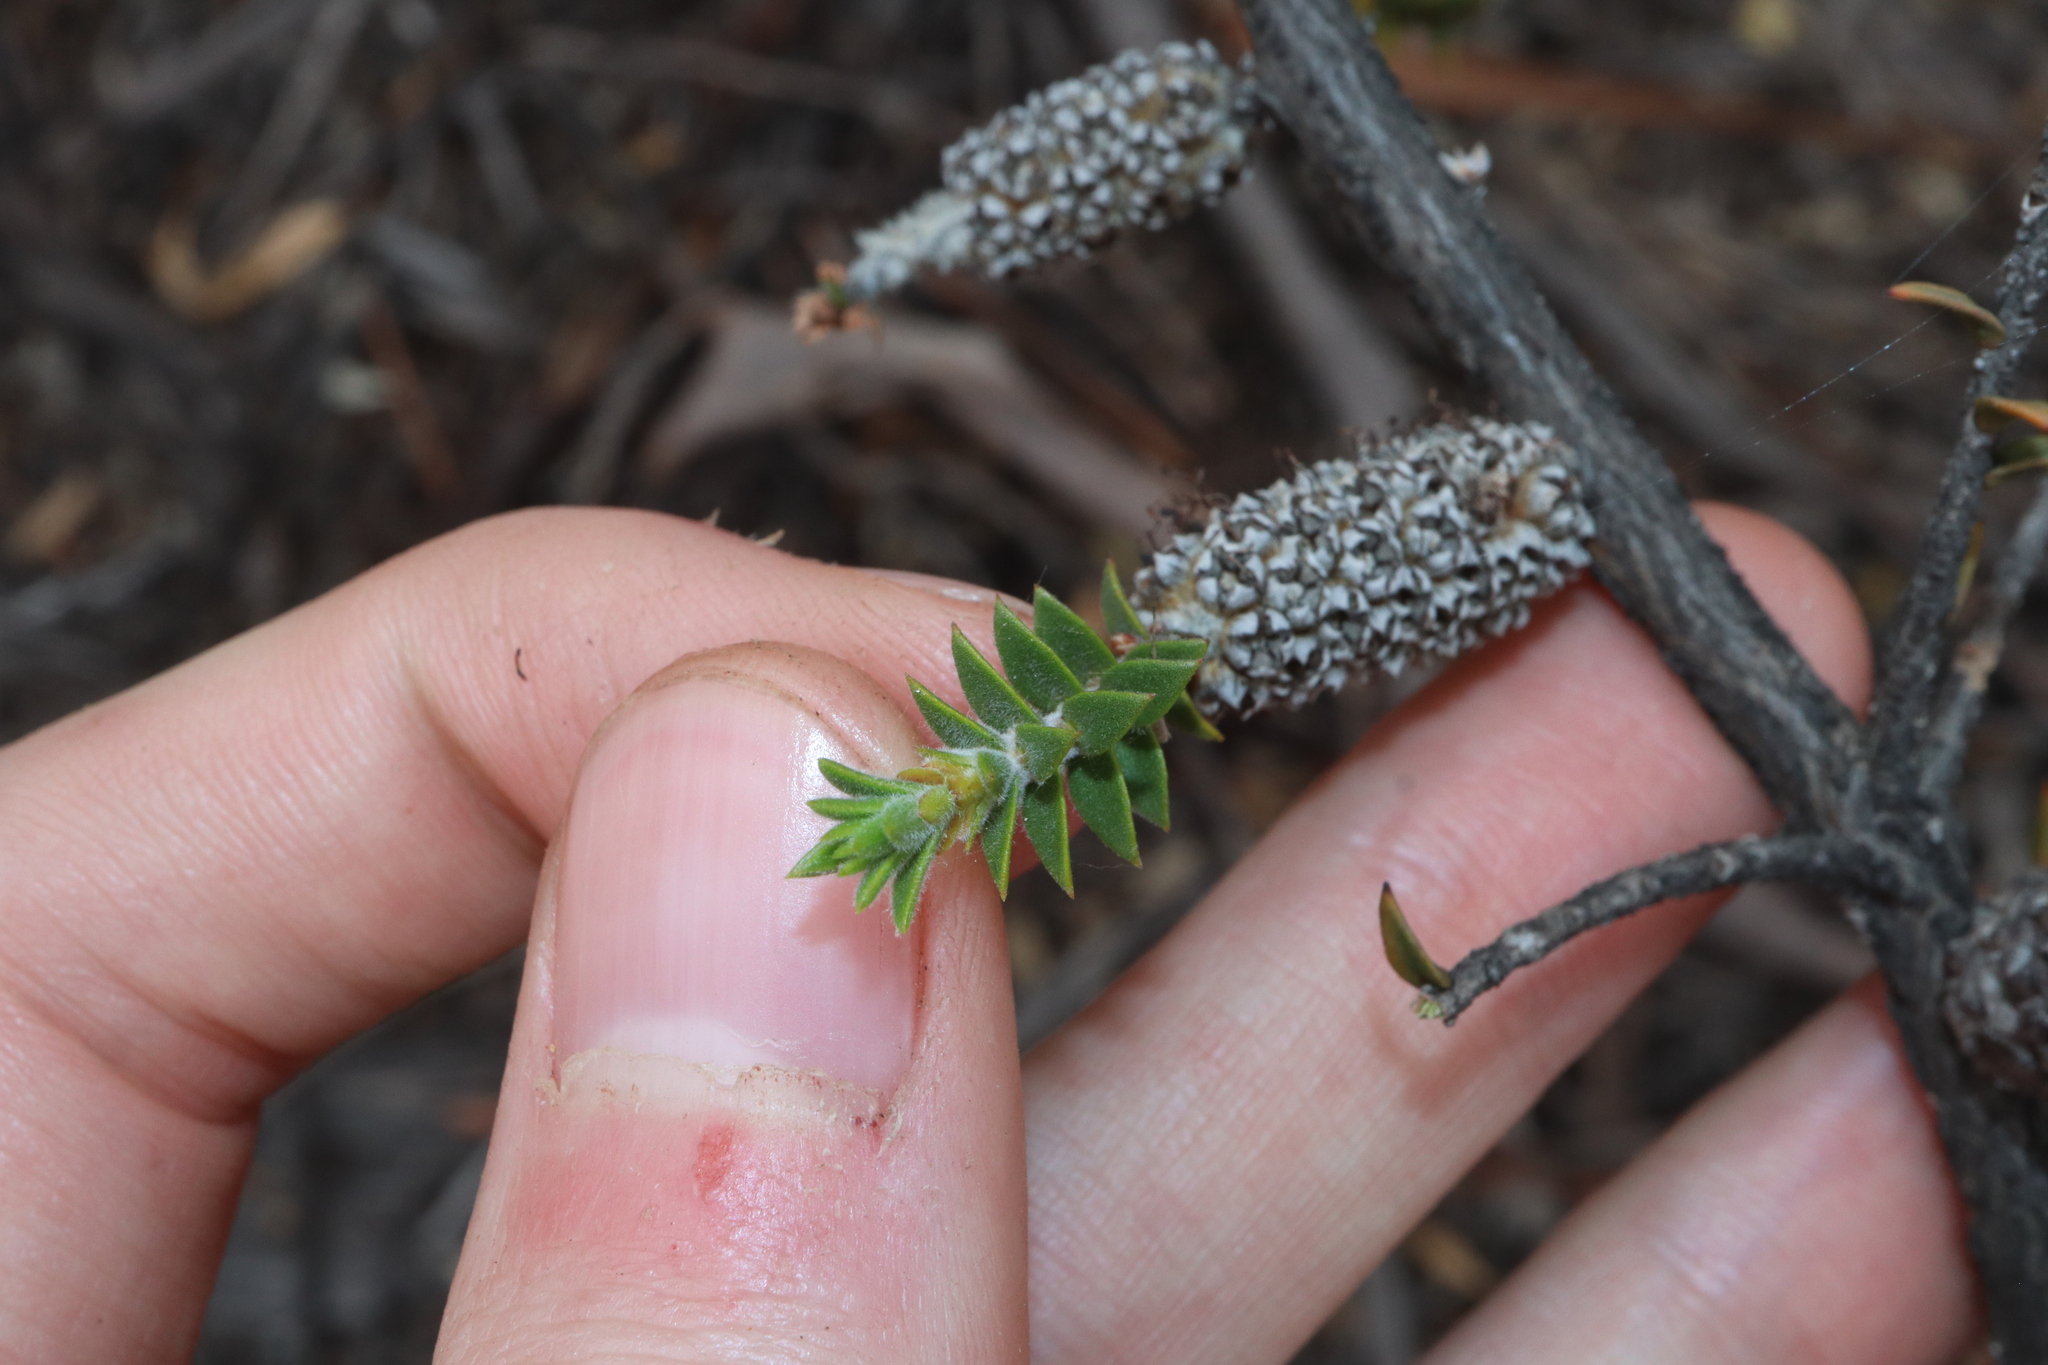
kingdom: Plantae
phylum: Tracheophyta
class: Magnoliopsida
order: Myrtales
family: Myrtaceae
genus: Melaleuca
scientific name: Melaleuca adnata
